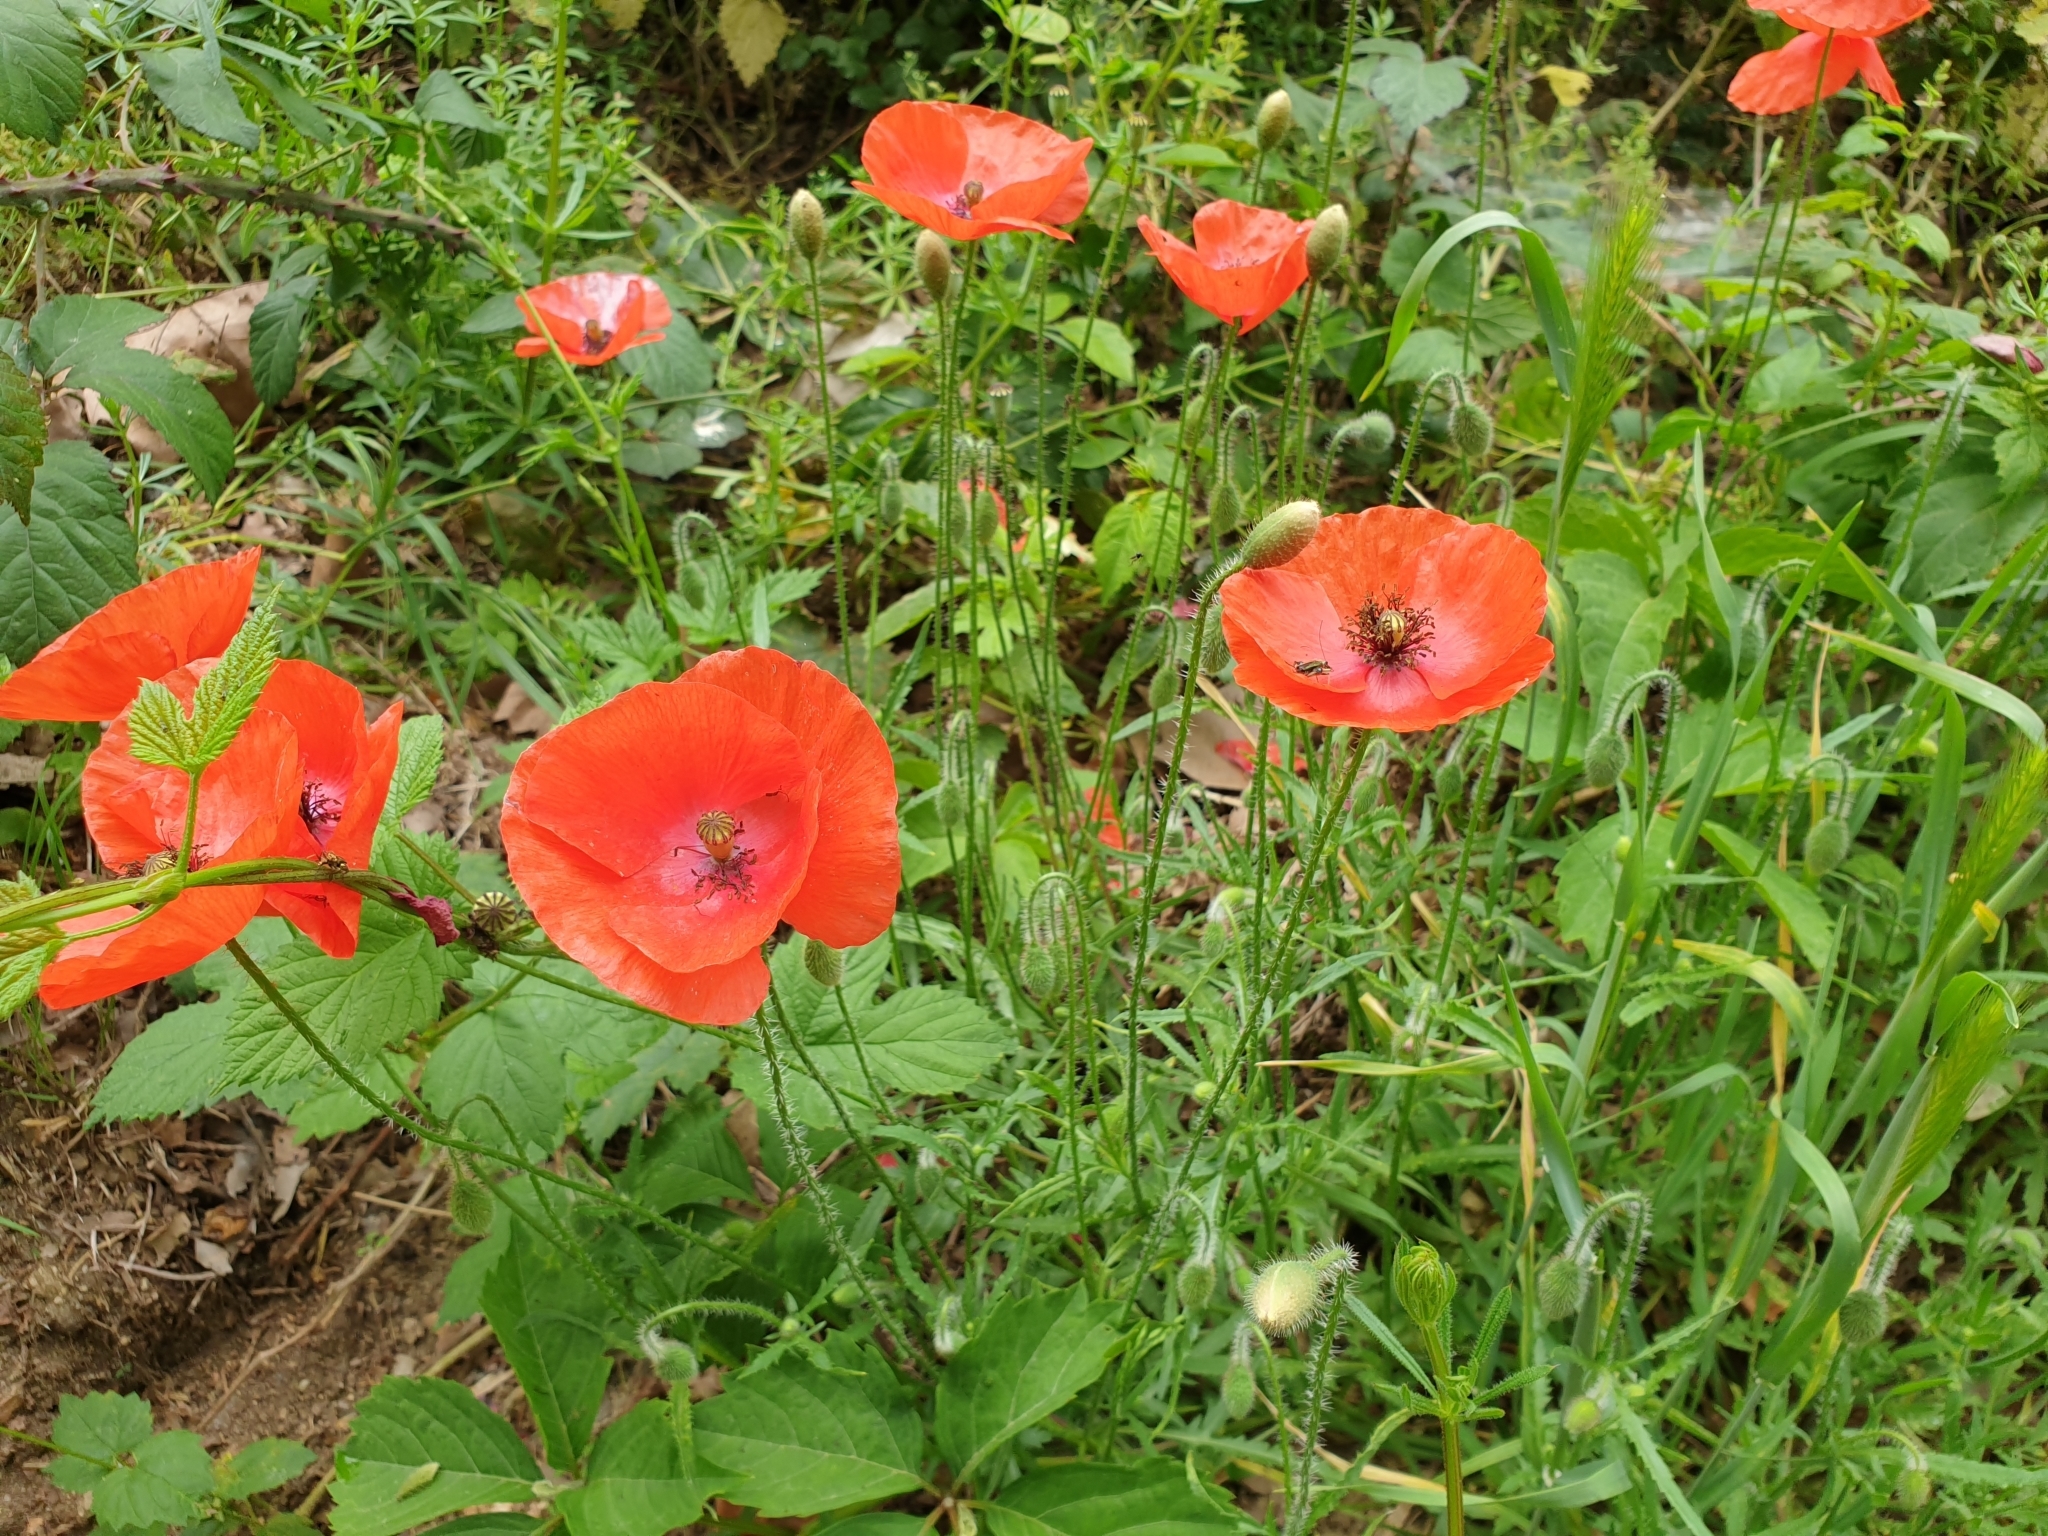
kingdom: Plantae
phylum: Tracheophyta
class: Magnoliopsida
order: Ranunculales
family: Papaveraceae
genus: Papaver
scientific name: Papaver rhoeas
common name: Corn poppy
